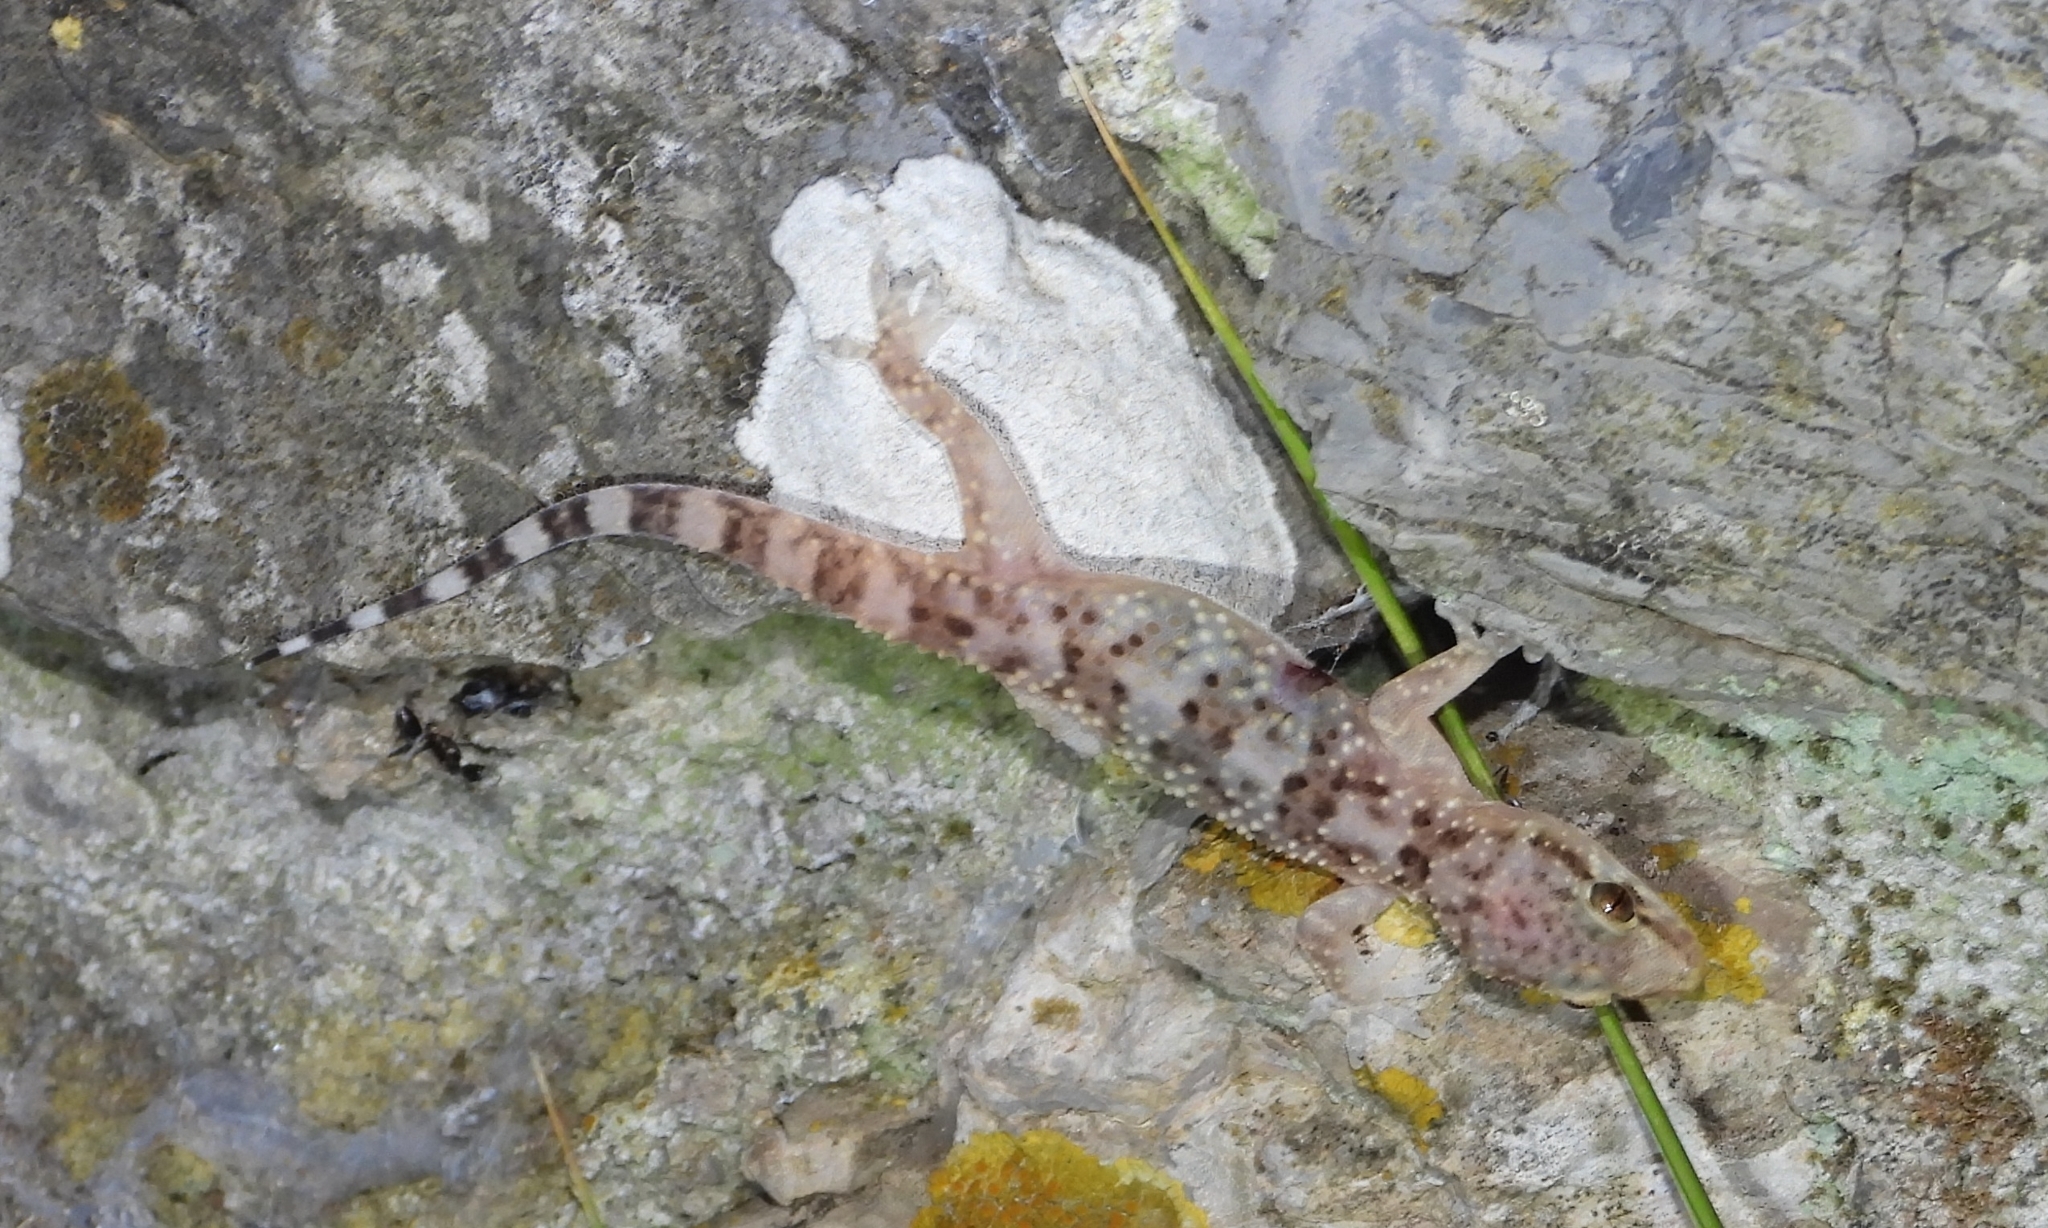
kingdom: Animalia
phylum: Chordata
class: Squamata
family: Gekkonidae
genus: Hemidactylus
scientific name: Hemidactylus turcicus
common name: Turkish gecko
